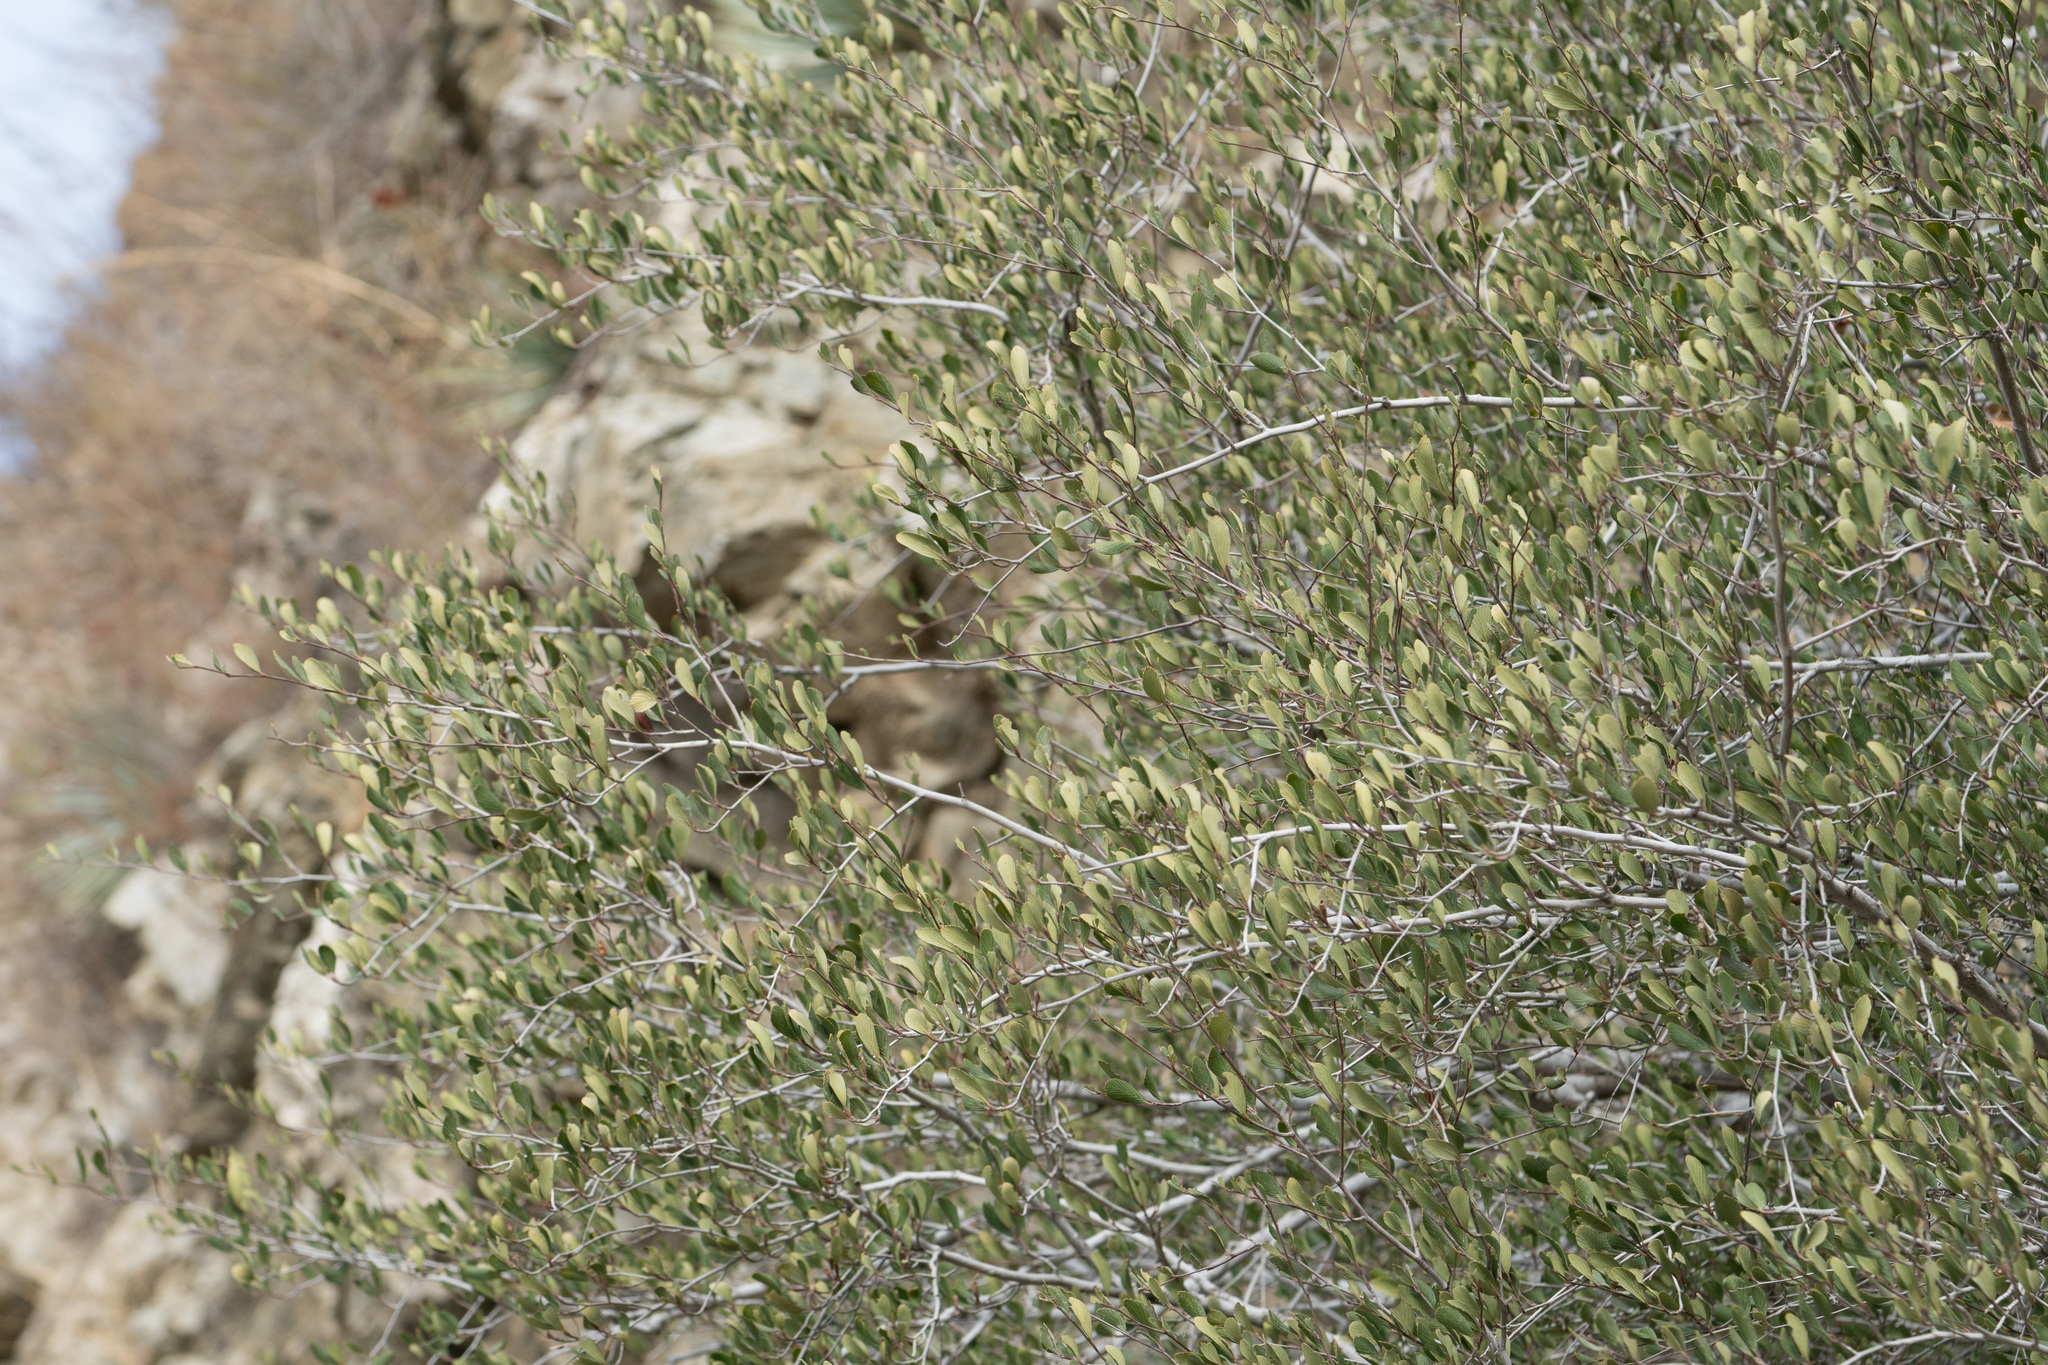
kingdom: Plantae
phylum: Tracheophyta
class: Magnoliopsida
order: Rosales
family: Rosaceae
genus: Cercocarpus
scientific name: Cercocarpus betuloides
